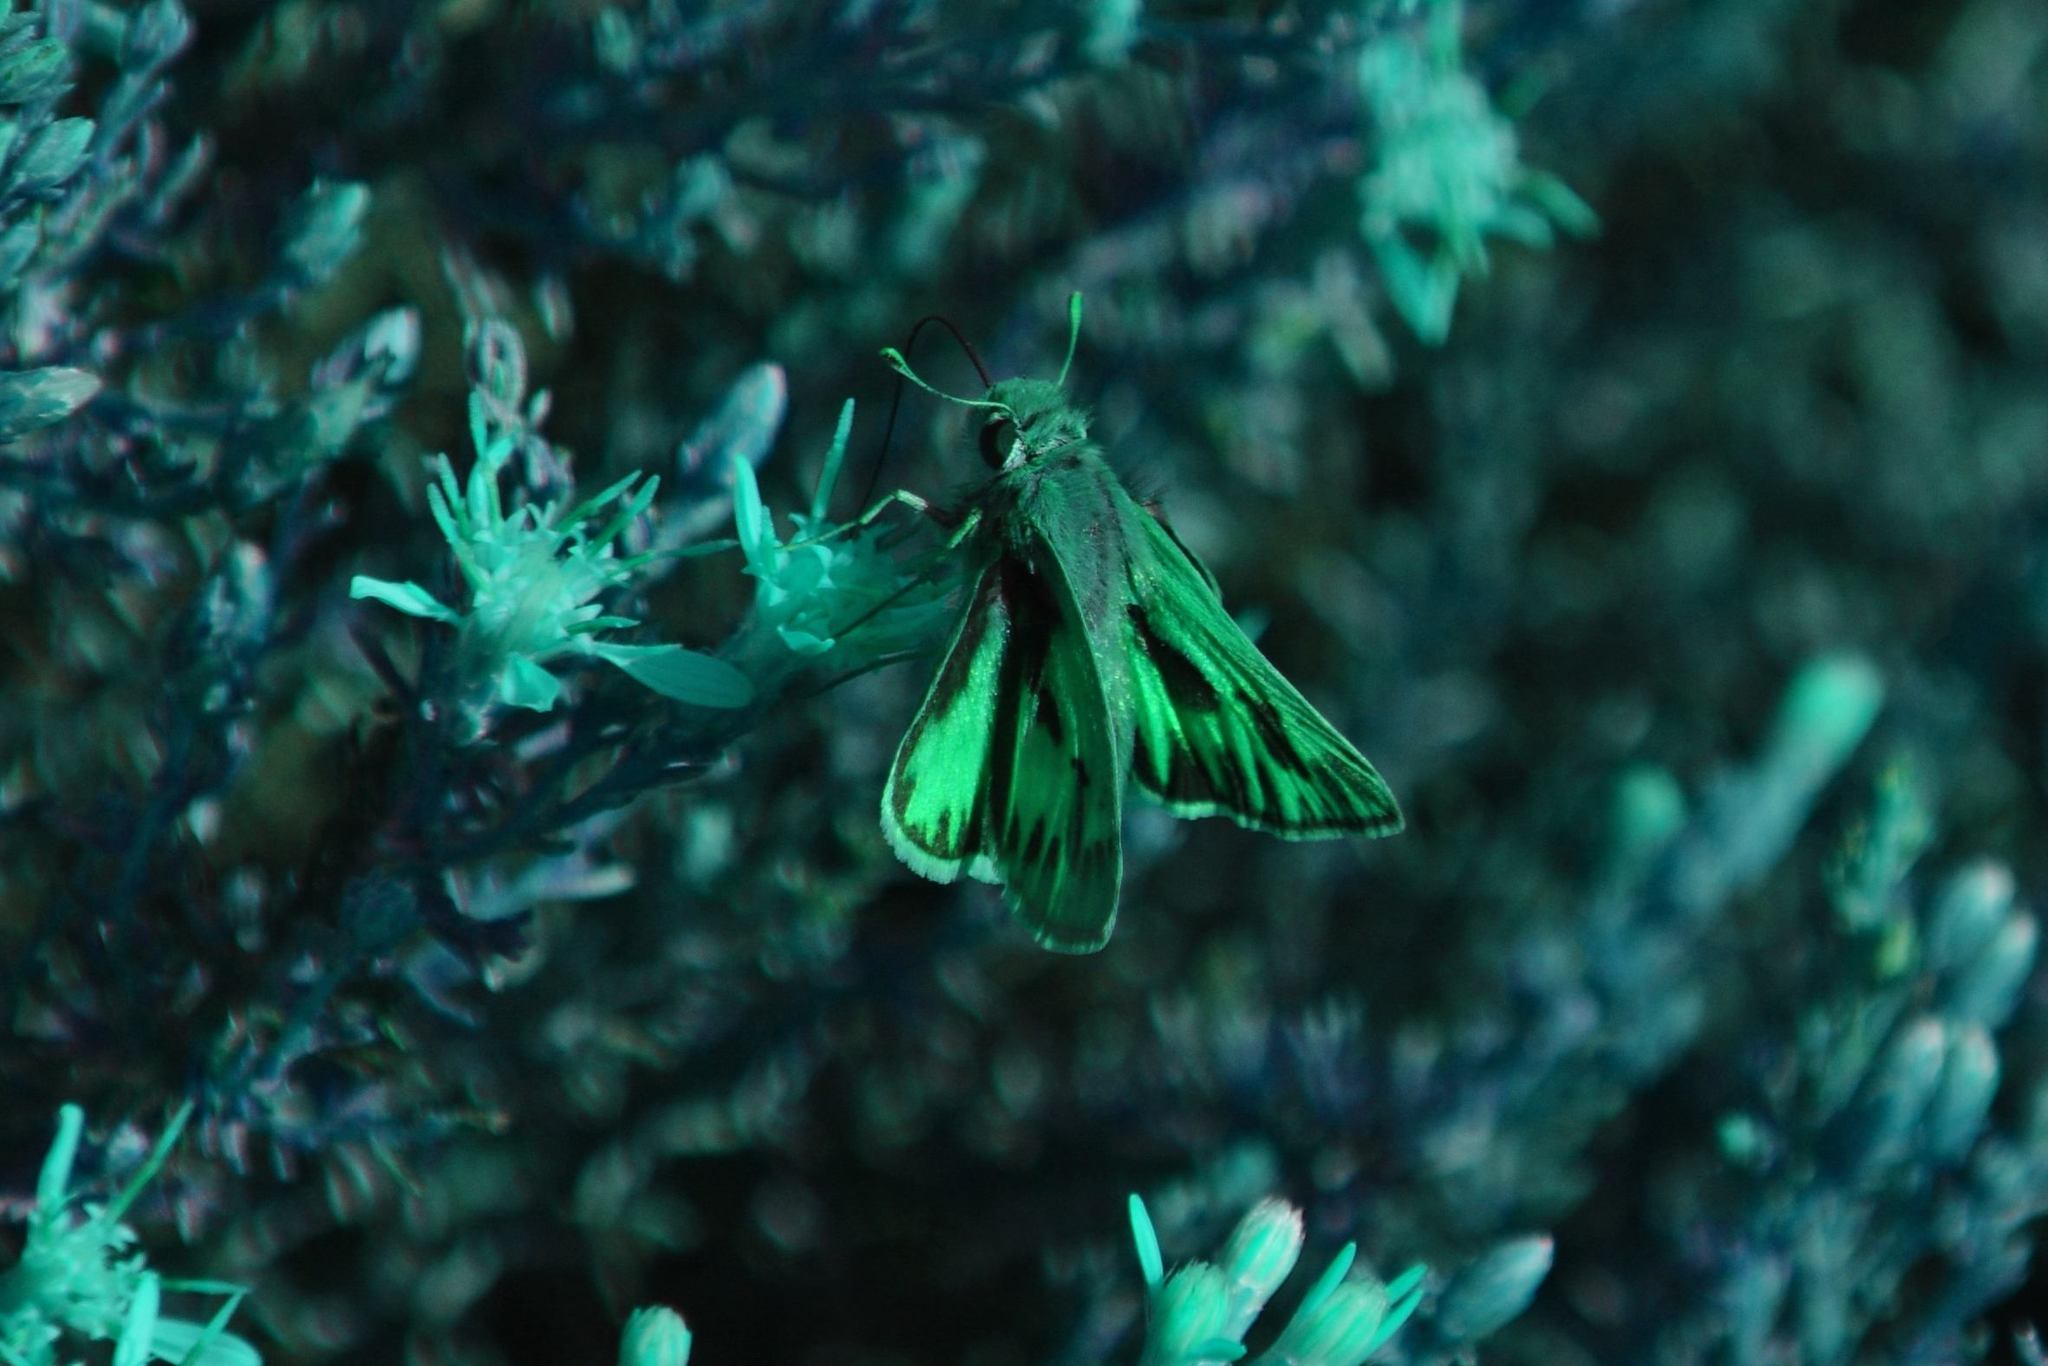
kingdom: Animalia
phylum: Arthropoda
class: Insecta
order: Lepidoptera
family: Hesperiidae
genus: Hylephila
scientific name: Hylephila phyleus
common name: Fiery skipper
